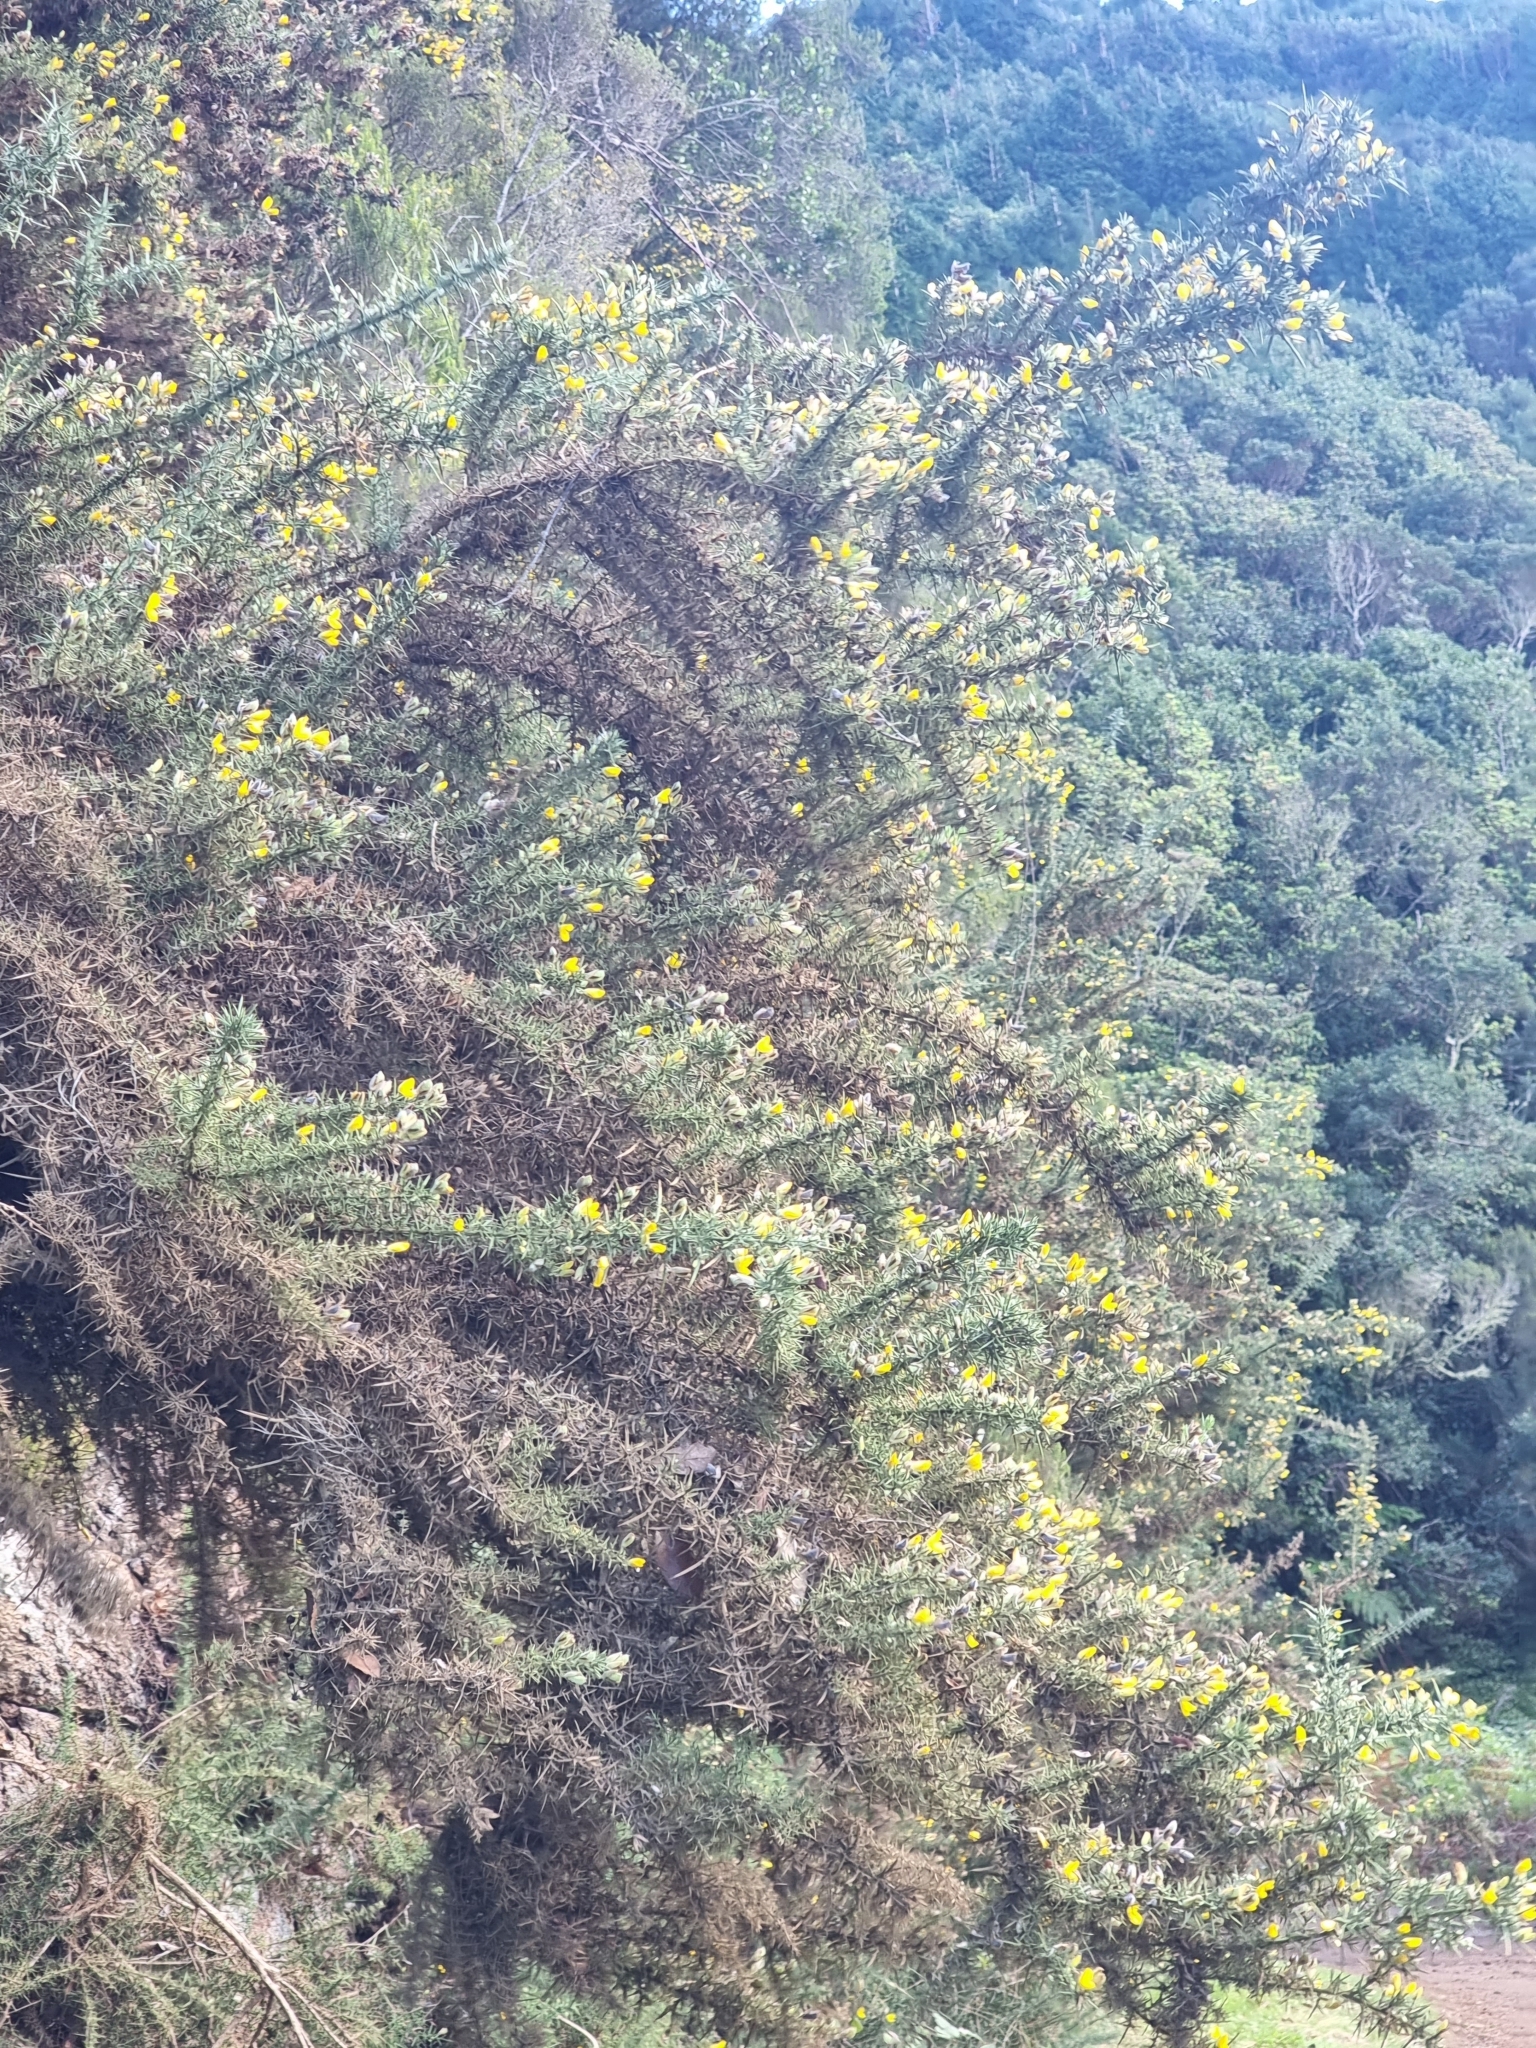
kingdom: Plantae
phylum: Tracheophyta
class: Magnoliopsida
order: Fabales
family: Fabaceae
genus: Ulex
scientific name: Ulex europaeus
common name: Common gorse
